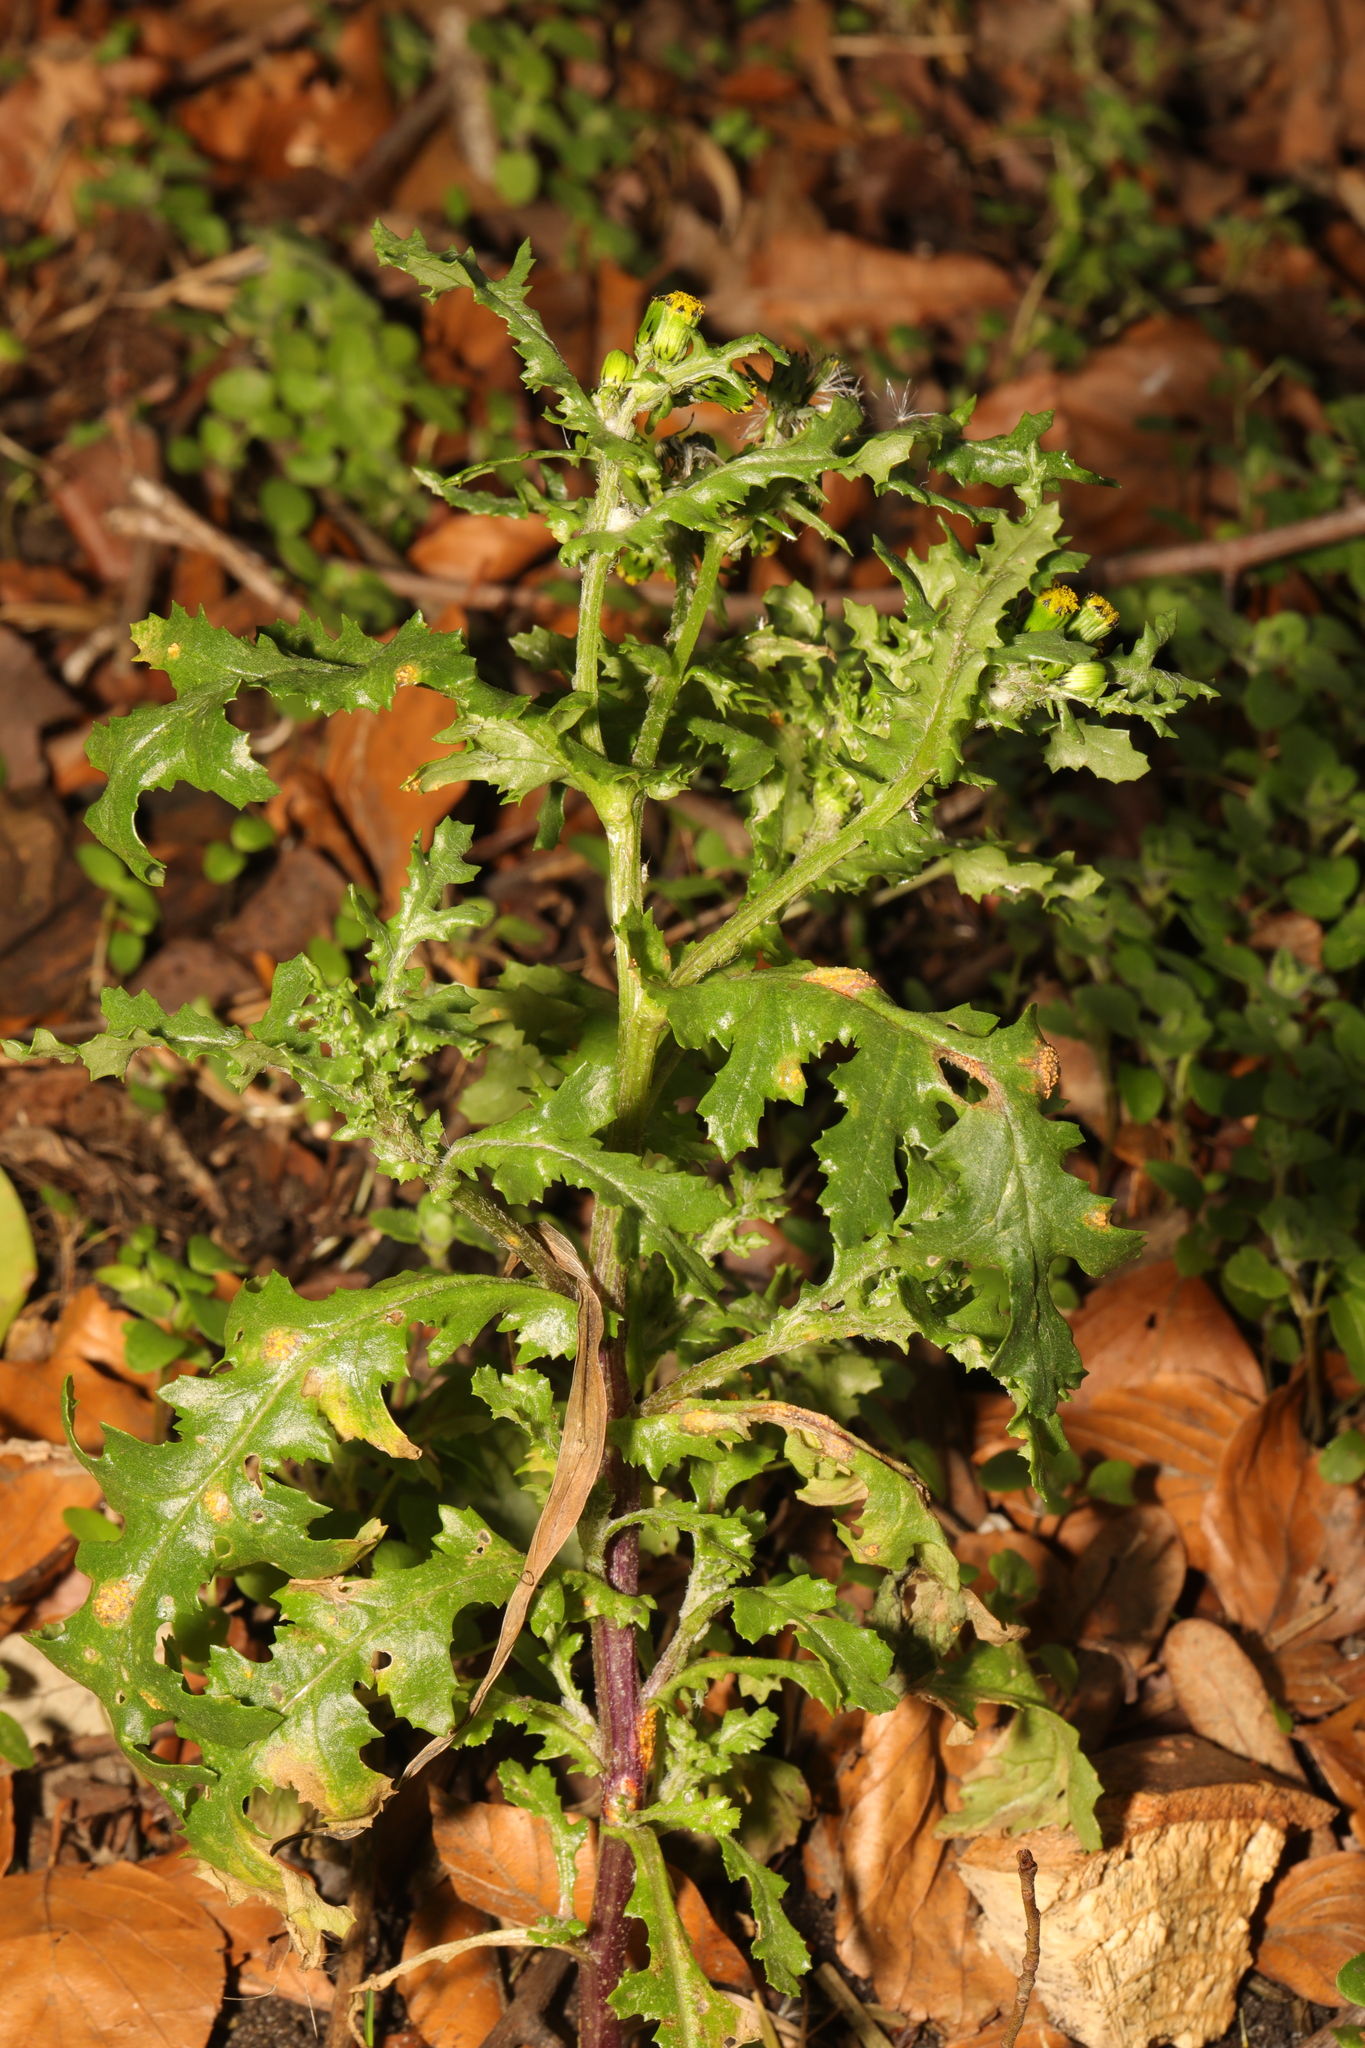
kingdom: Plantae
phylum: Tracheophyta
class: Magnoliopsida
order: Asterales
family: Asteraceae
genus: Senecio
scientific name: Senecio vulgaris
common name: Old-man-in-the-spring
